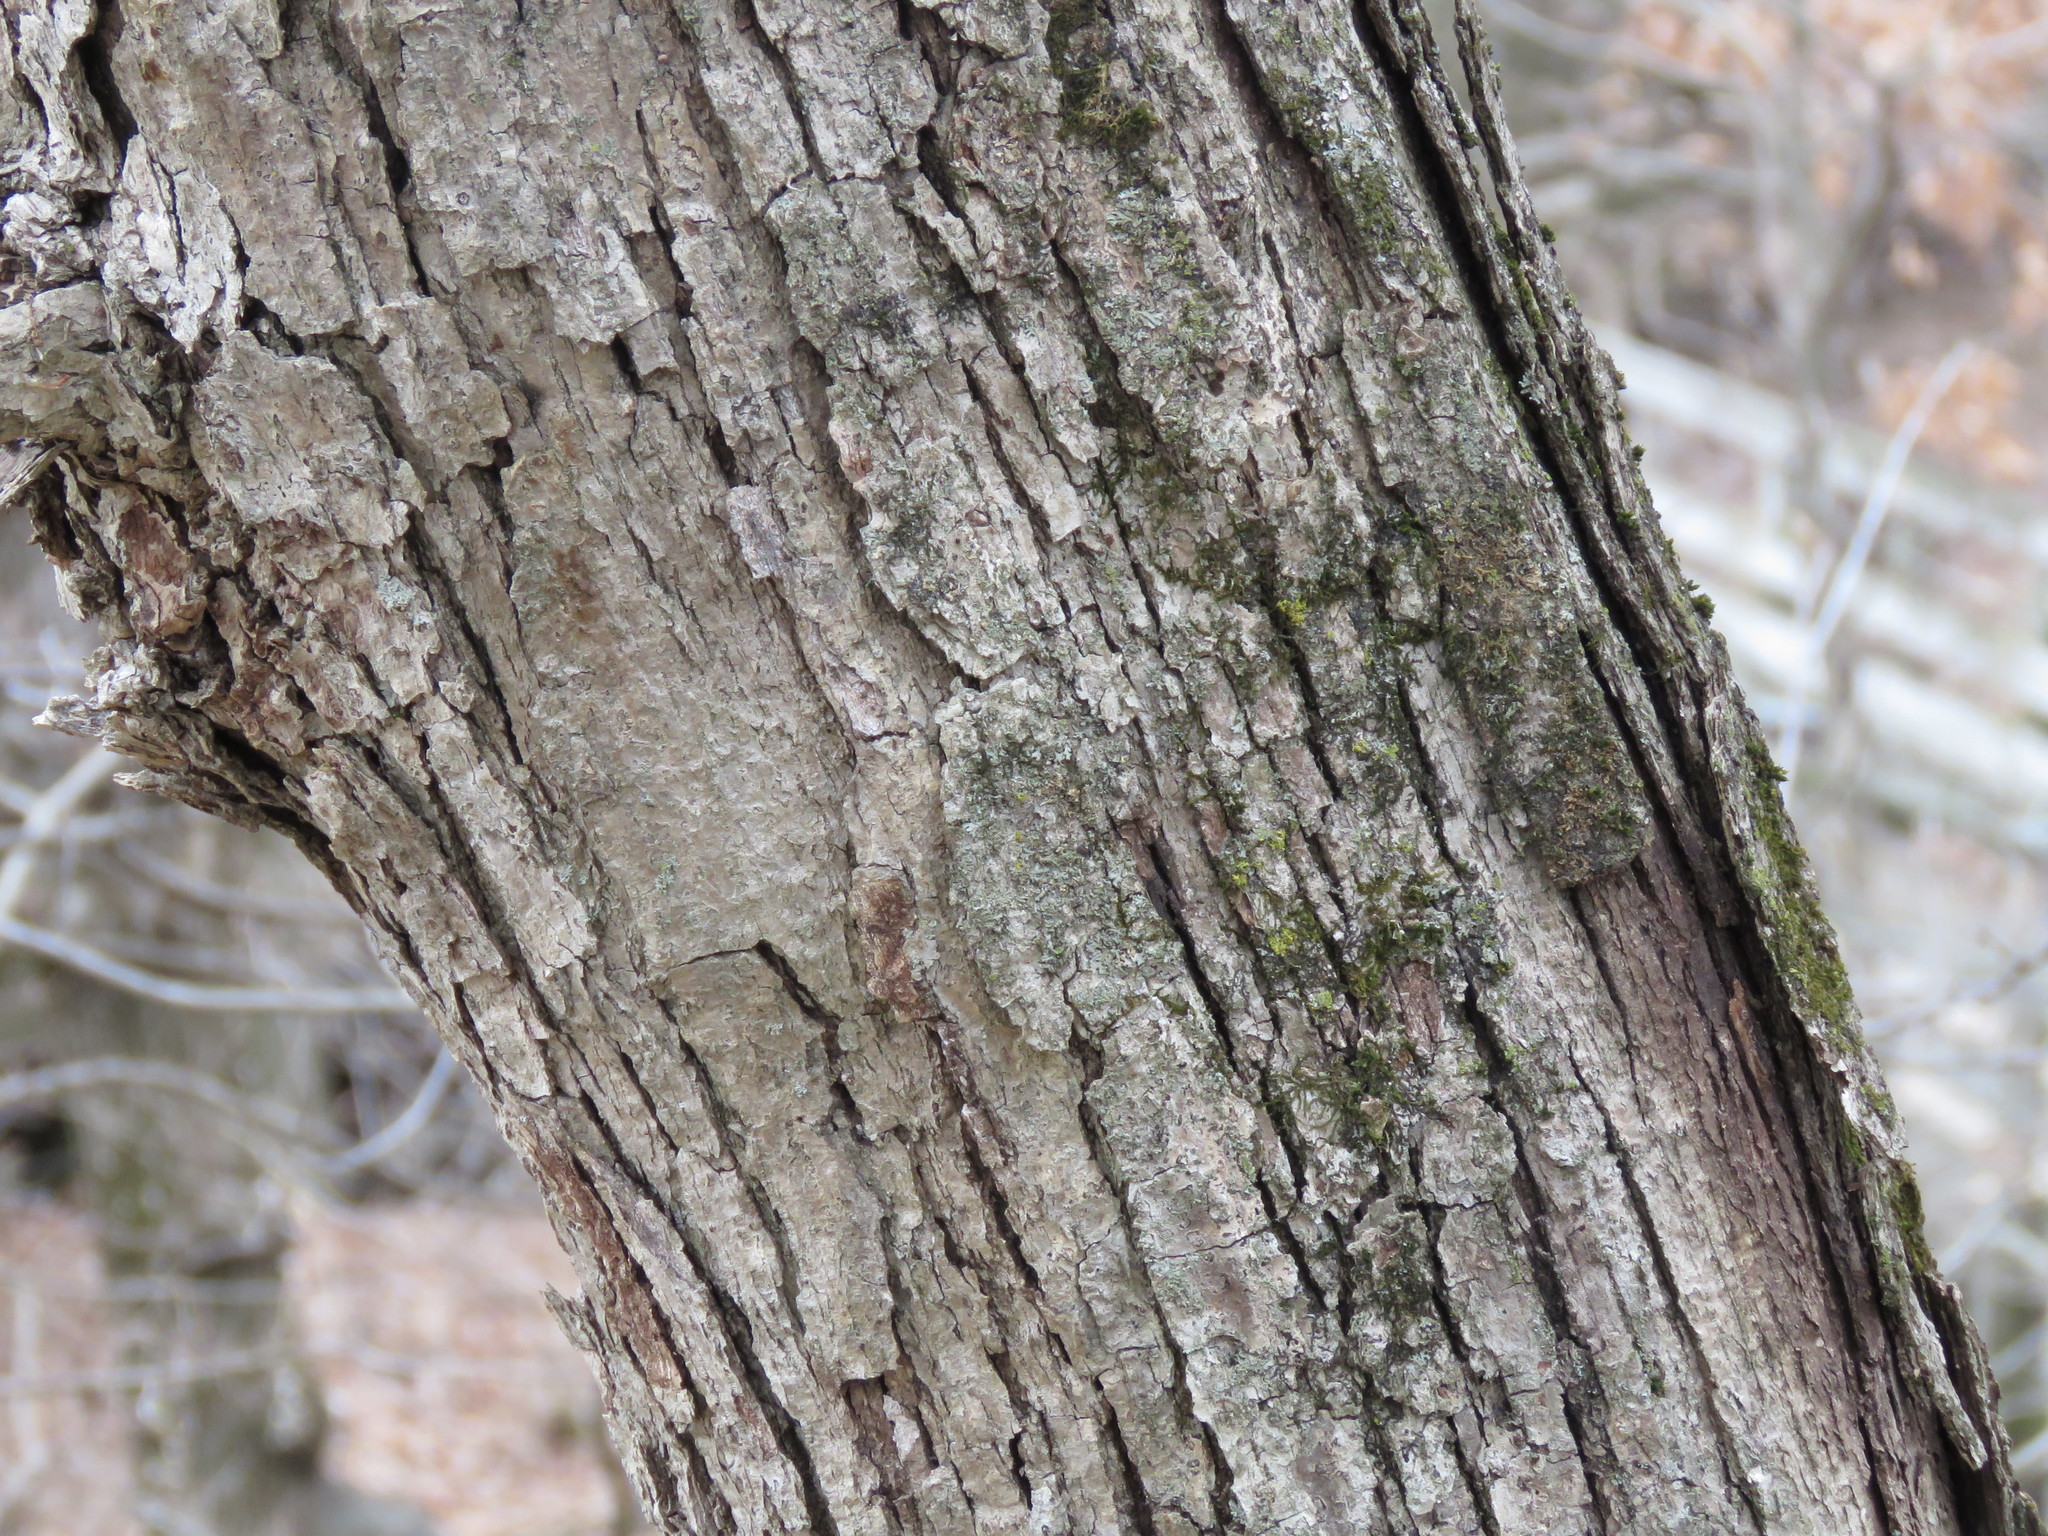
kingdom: Plantae
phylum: Tracheophyta
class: Magnoliopsida
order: Fagales
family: Fagaceae
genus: Quercus
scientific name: Quercus alba
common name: White oak
